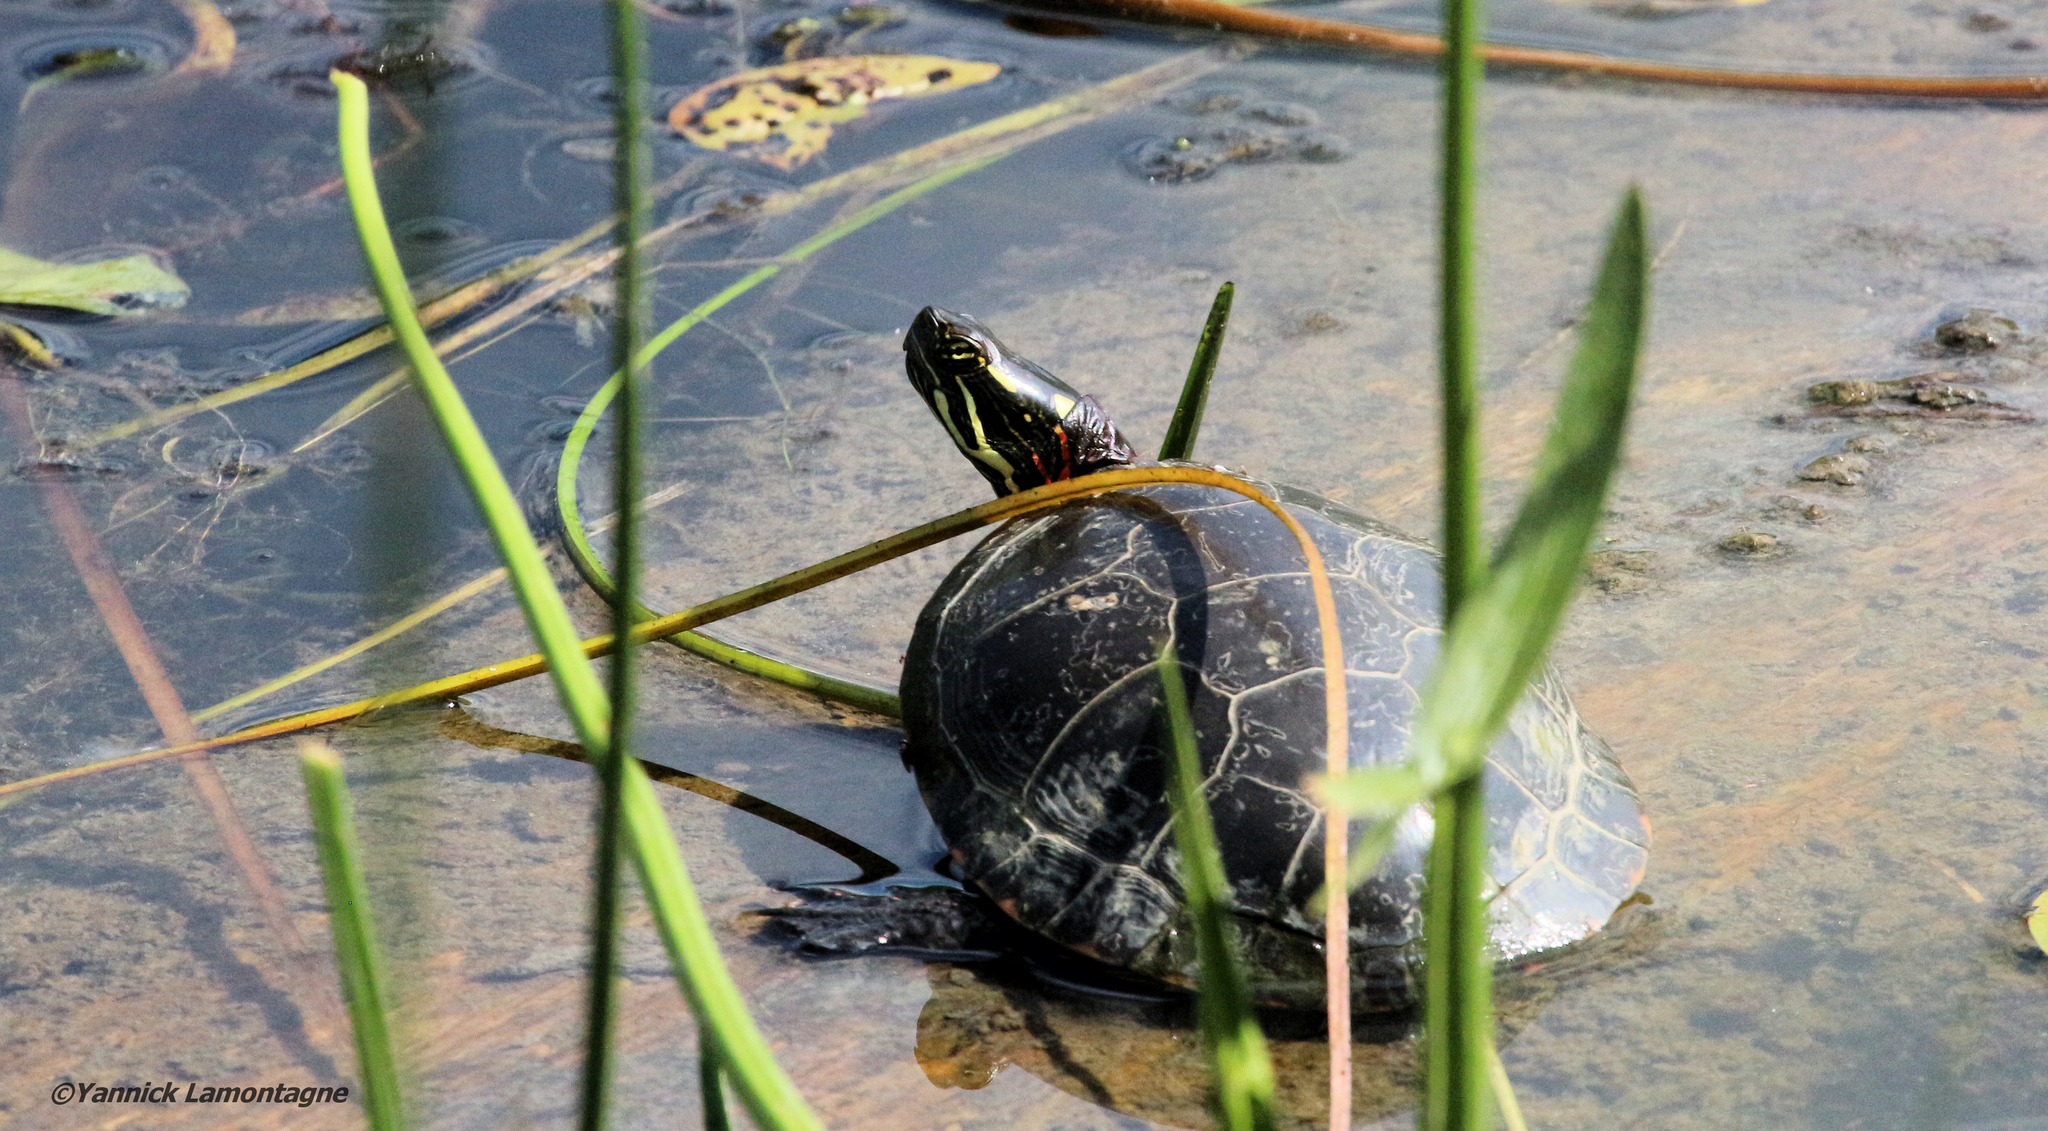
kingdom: Animalia
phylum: Chordata
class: Testudines
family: Emydidae
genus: Chrysemys
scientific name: Chrysemys picta
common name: Painted turtle
